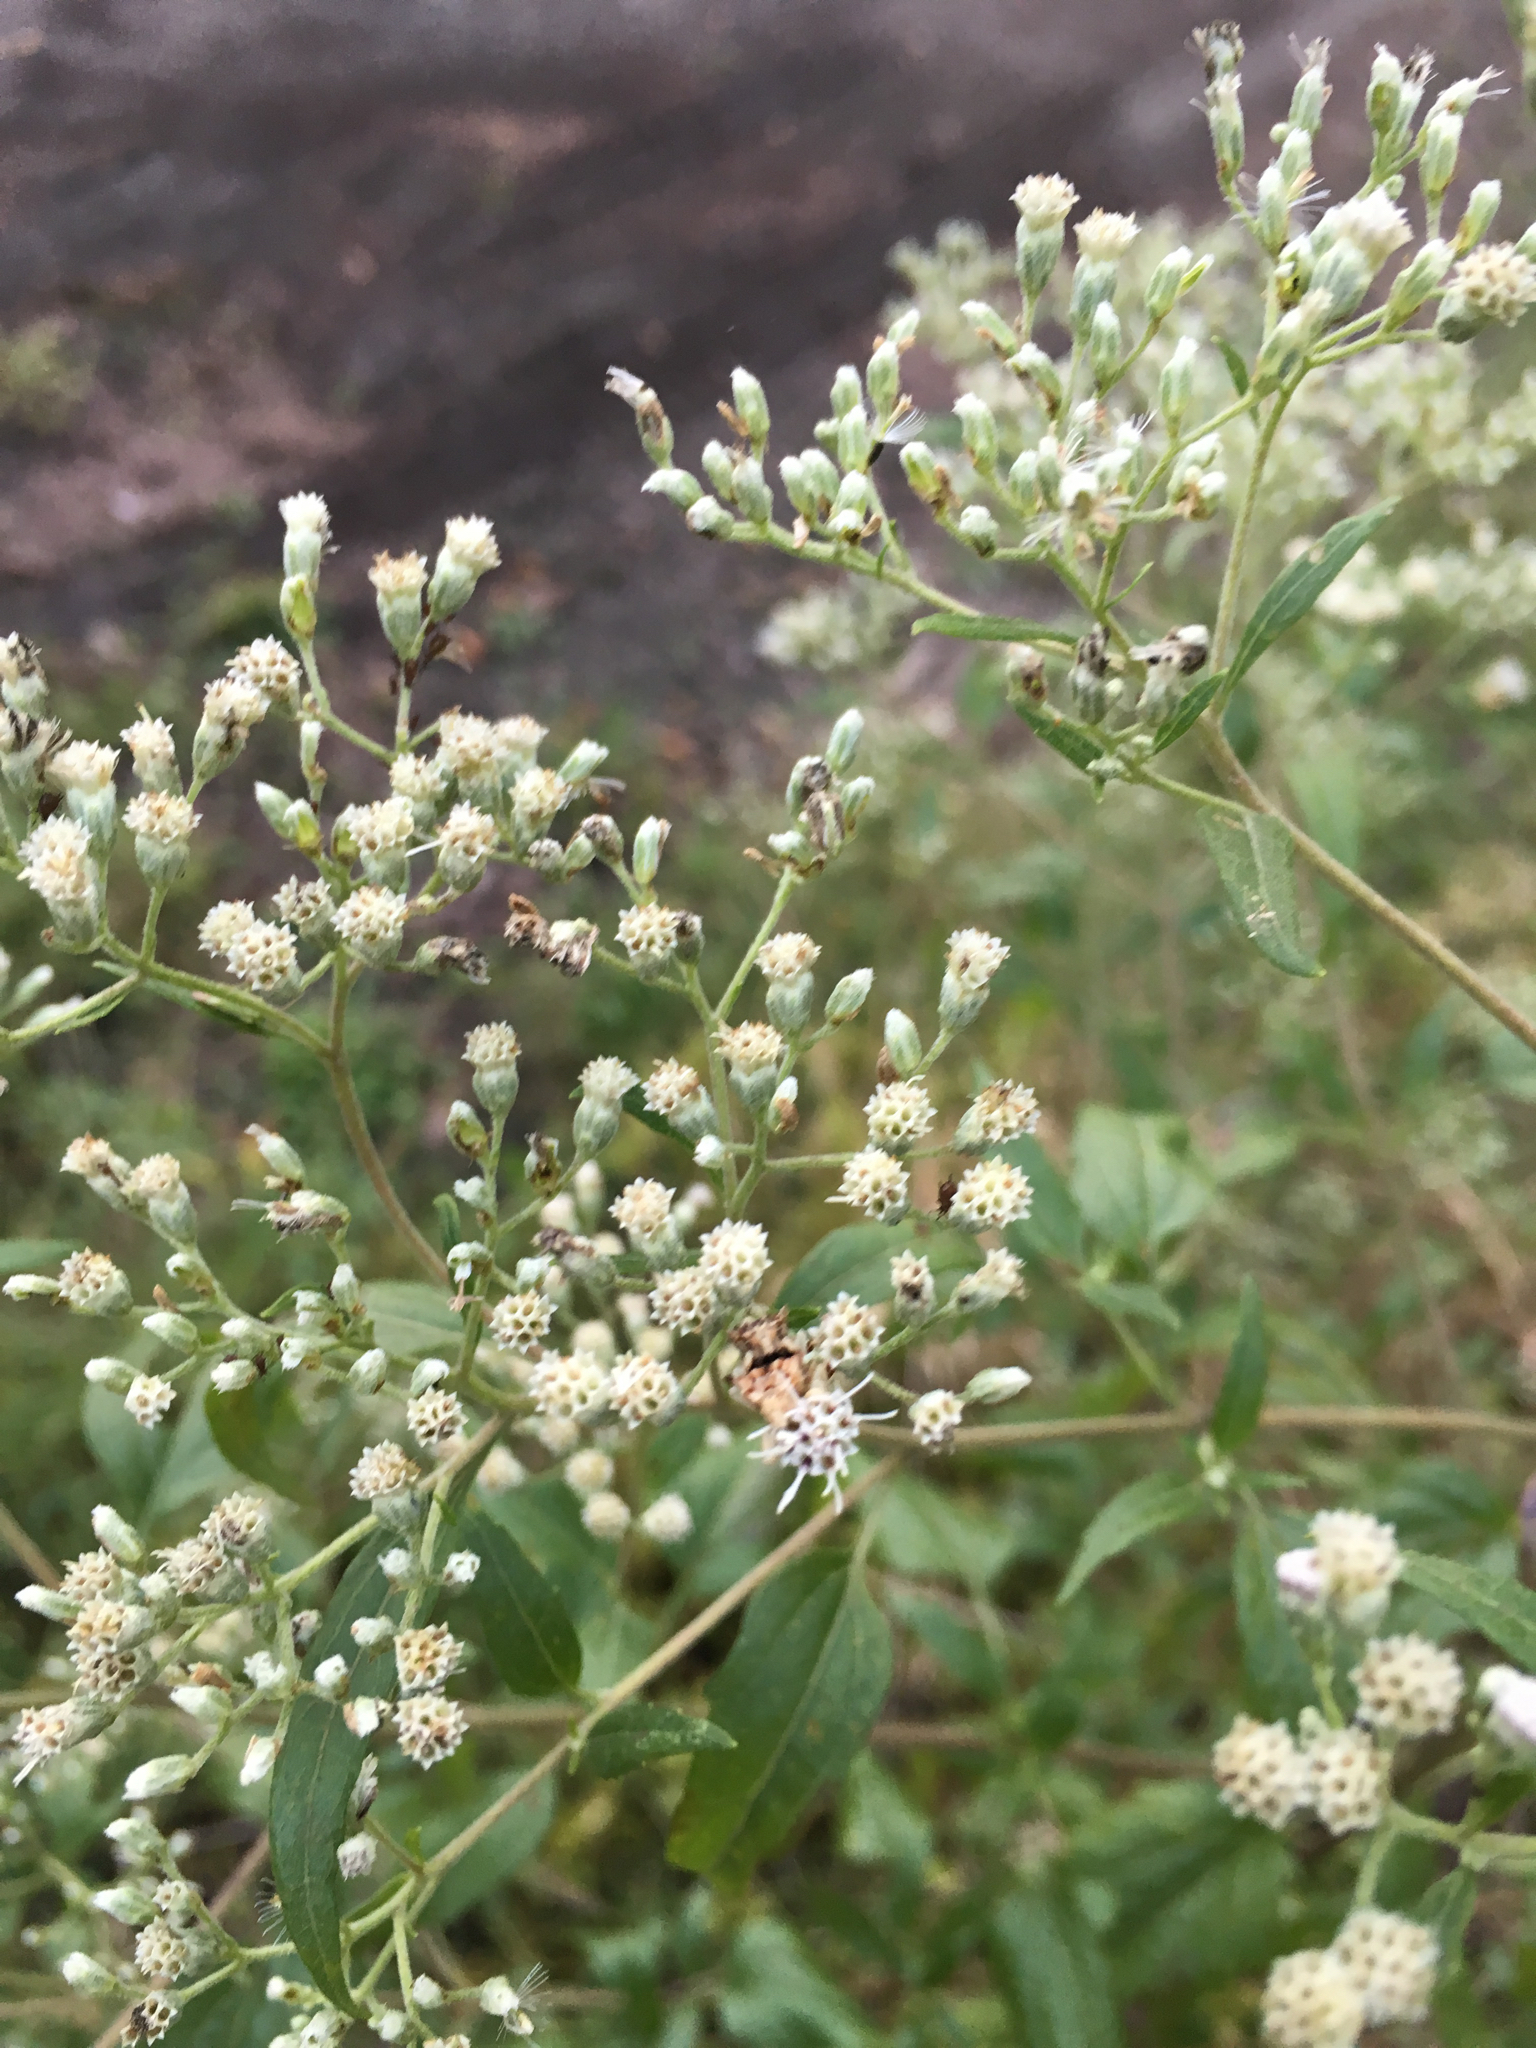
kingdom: Plantae
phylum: Tracheophyta
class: Magnoliopsida
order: Asterales
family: Asteraceae
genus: Eupatorium
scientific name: Eupatorium serotinum
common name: Late boneset
